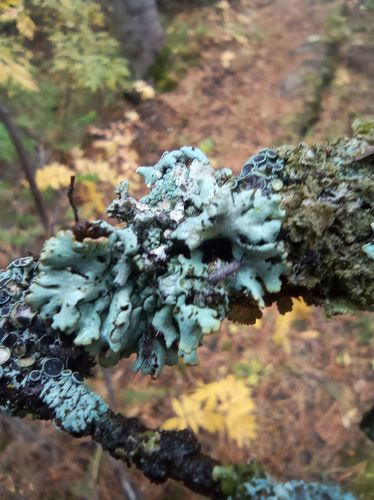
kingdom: Fungi
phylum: Ascomycota
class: Lecanoromycetes
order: Lecanorales
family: Parmeliaceae
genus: Hypogymnia
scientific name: Hypogymnia physodes
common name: Dark crottle
